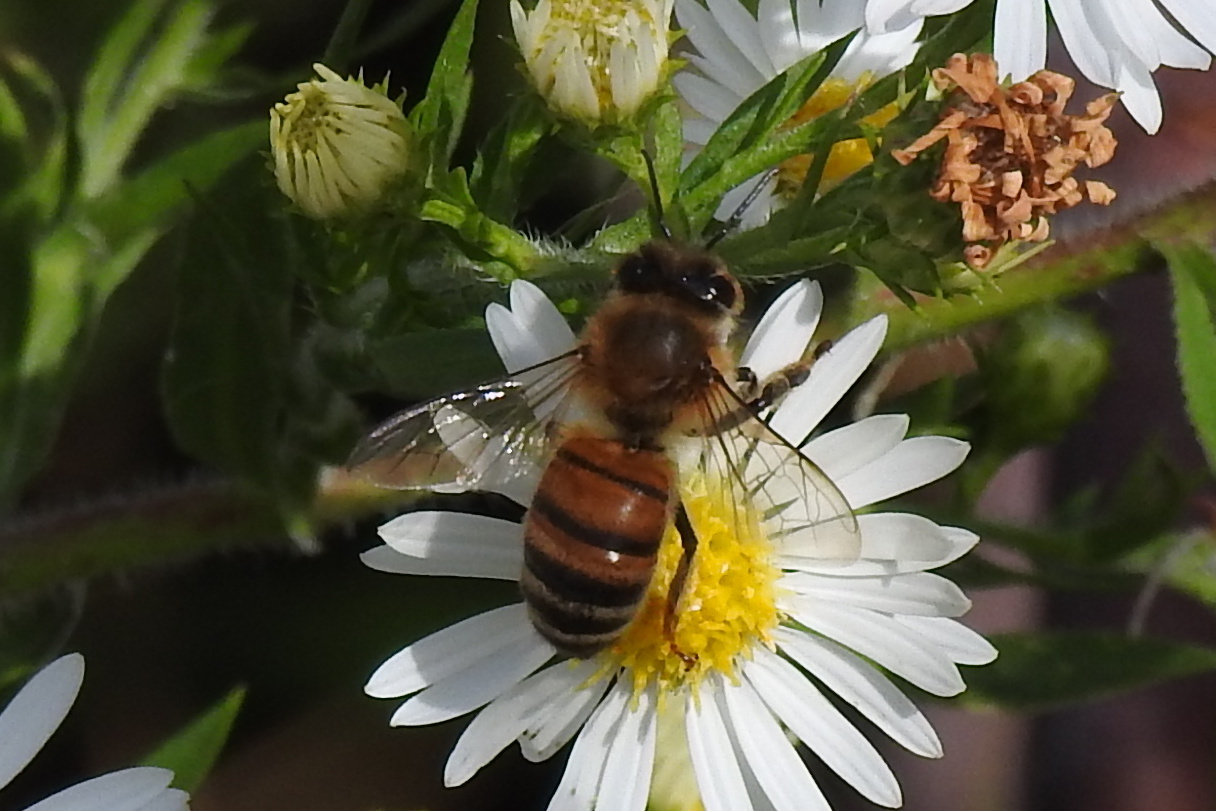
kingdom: Animalia
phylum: Arthropoda
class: Insecta
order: Hymenoptera
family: Apidae
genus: Apis
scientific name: Apis mellifera
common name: Honey bee
